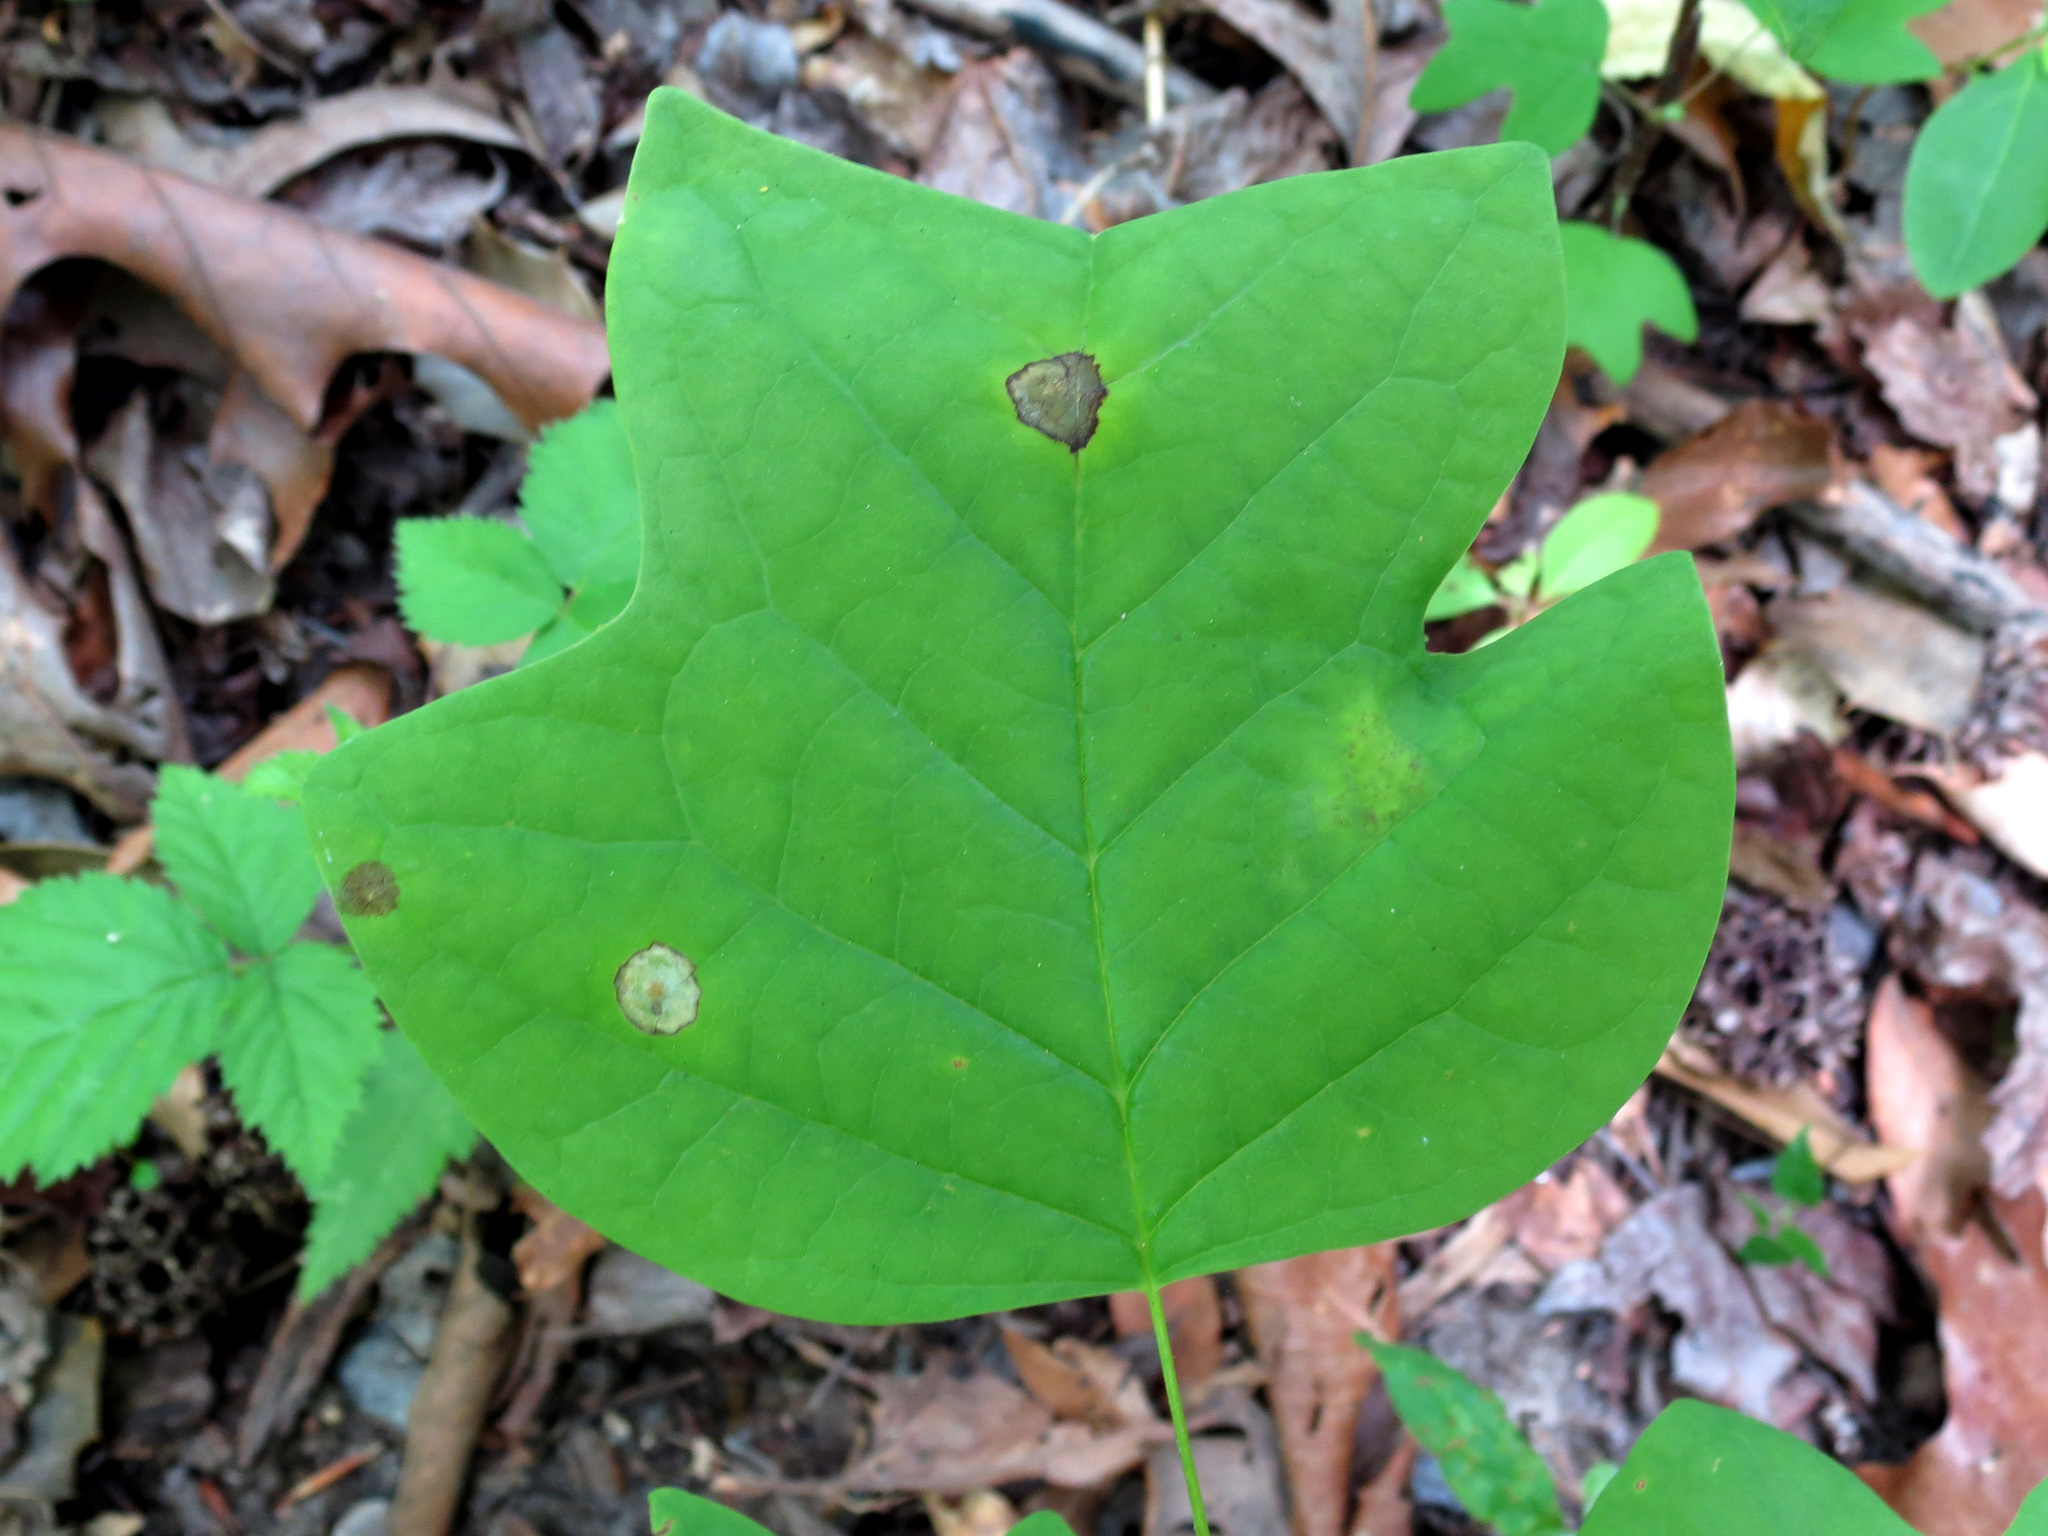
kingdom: Animalia
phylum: Arthropoda
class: Insecta
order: Diptera
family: Cecidomyiidae
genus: Resseliella
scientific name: Resseliella liriodendri
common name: Tulip tree leaf spot gall midge
